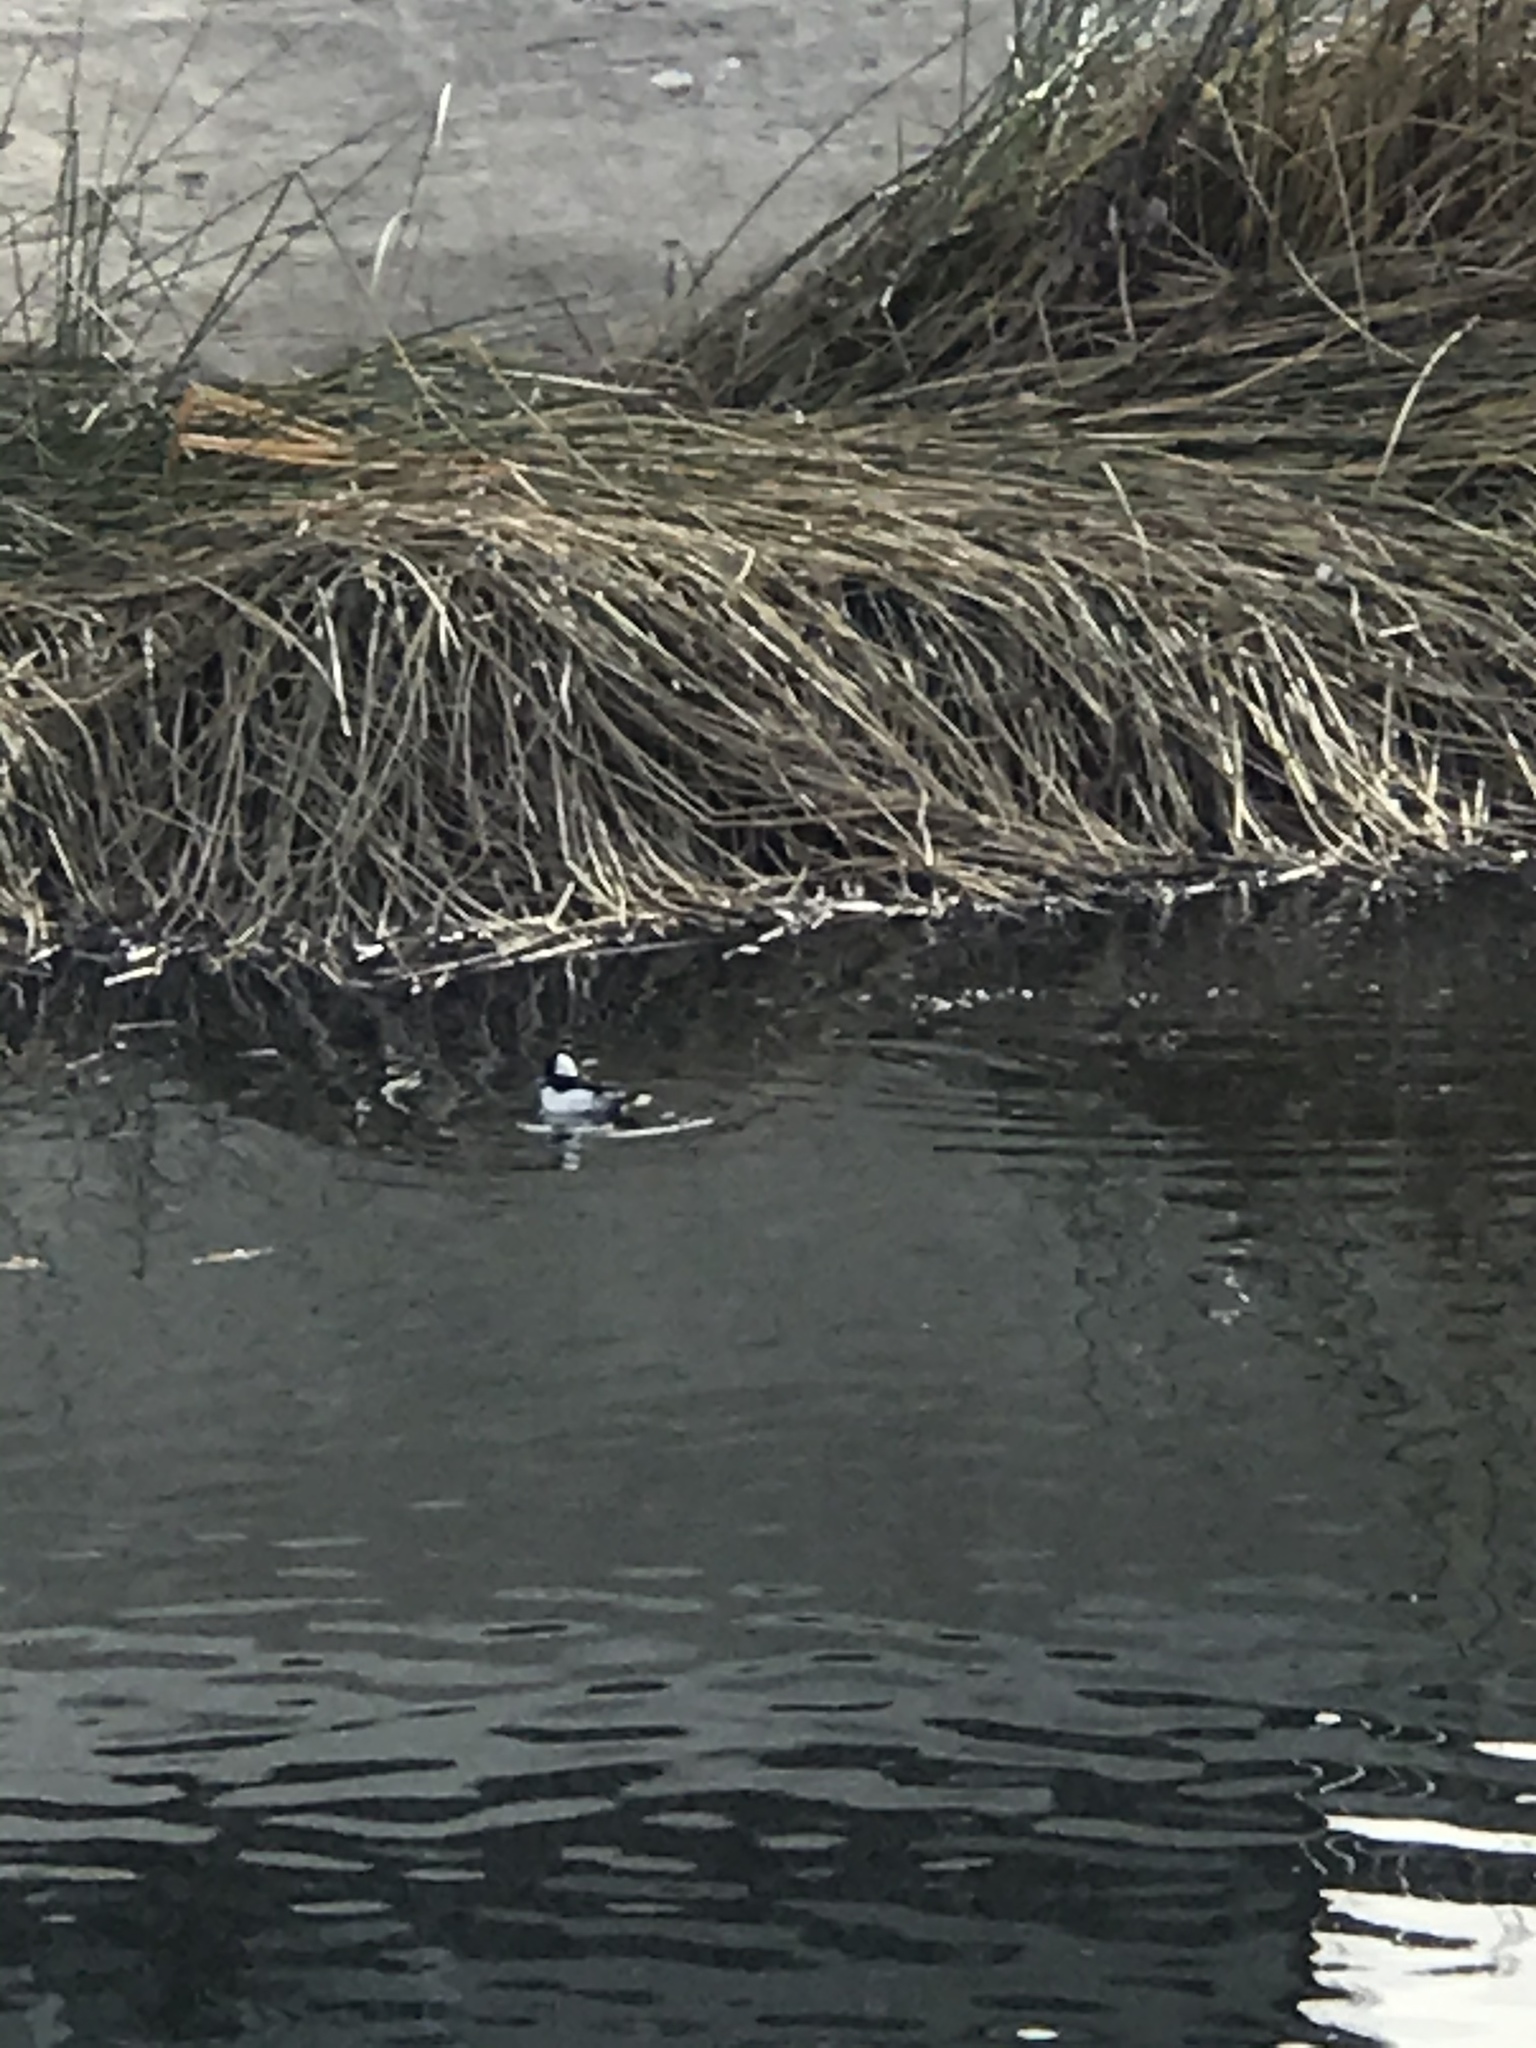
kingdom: Animalia
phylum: Chordata
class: Aves
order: Anseriformes
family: Anatidae
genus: Bucephala
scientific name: Bucephala albeola
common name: Bufflehead
